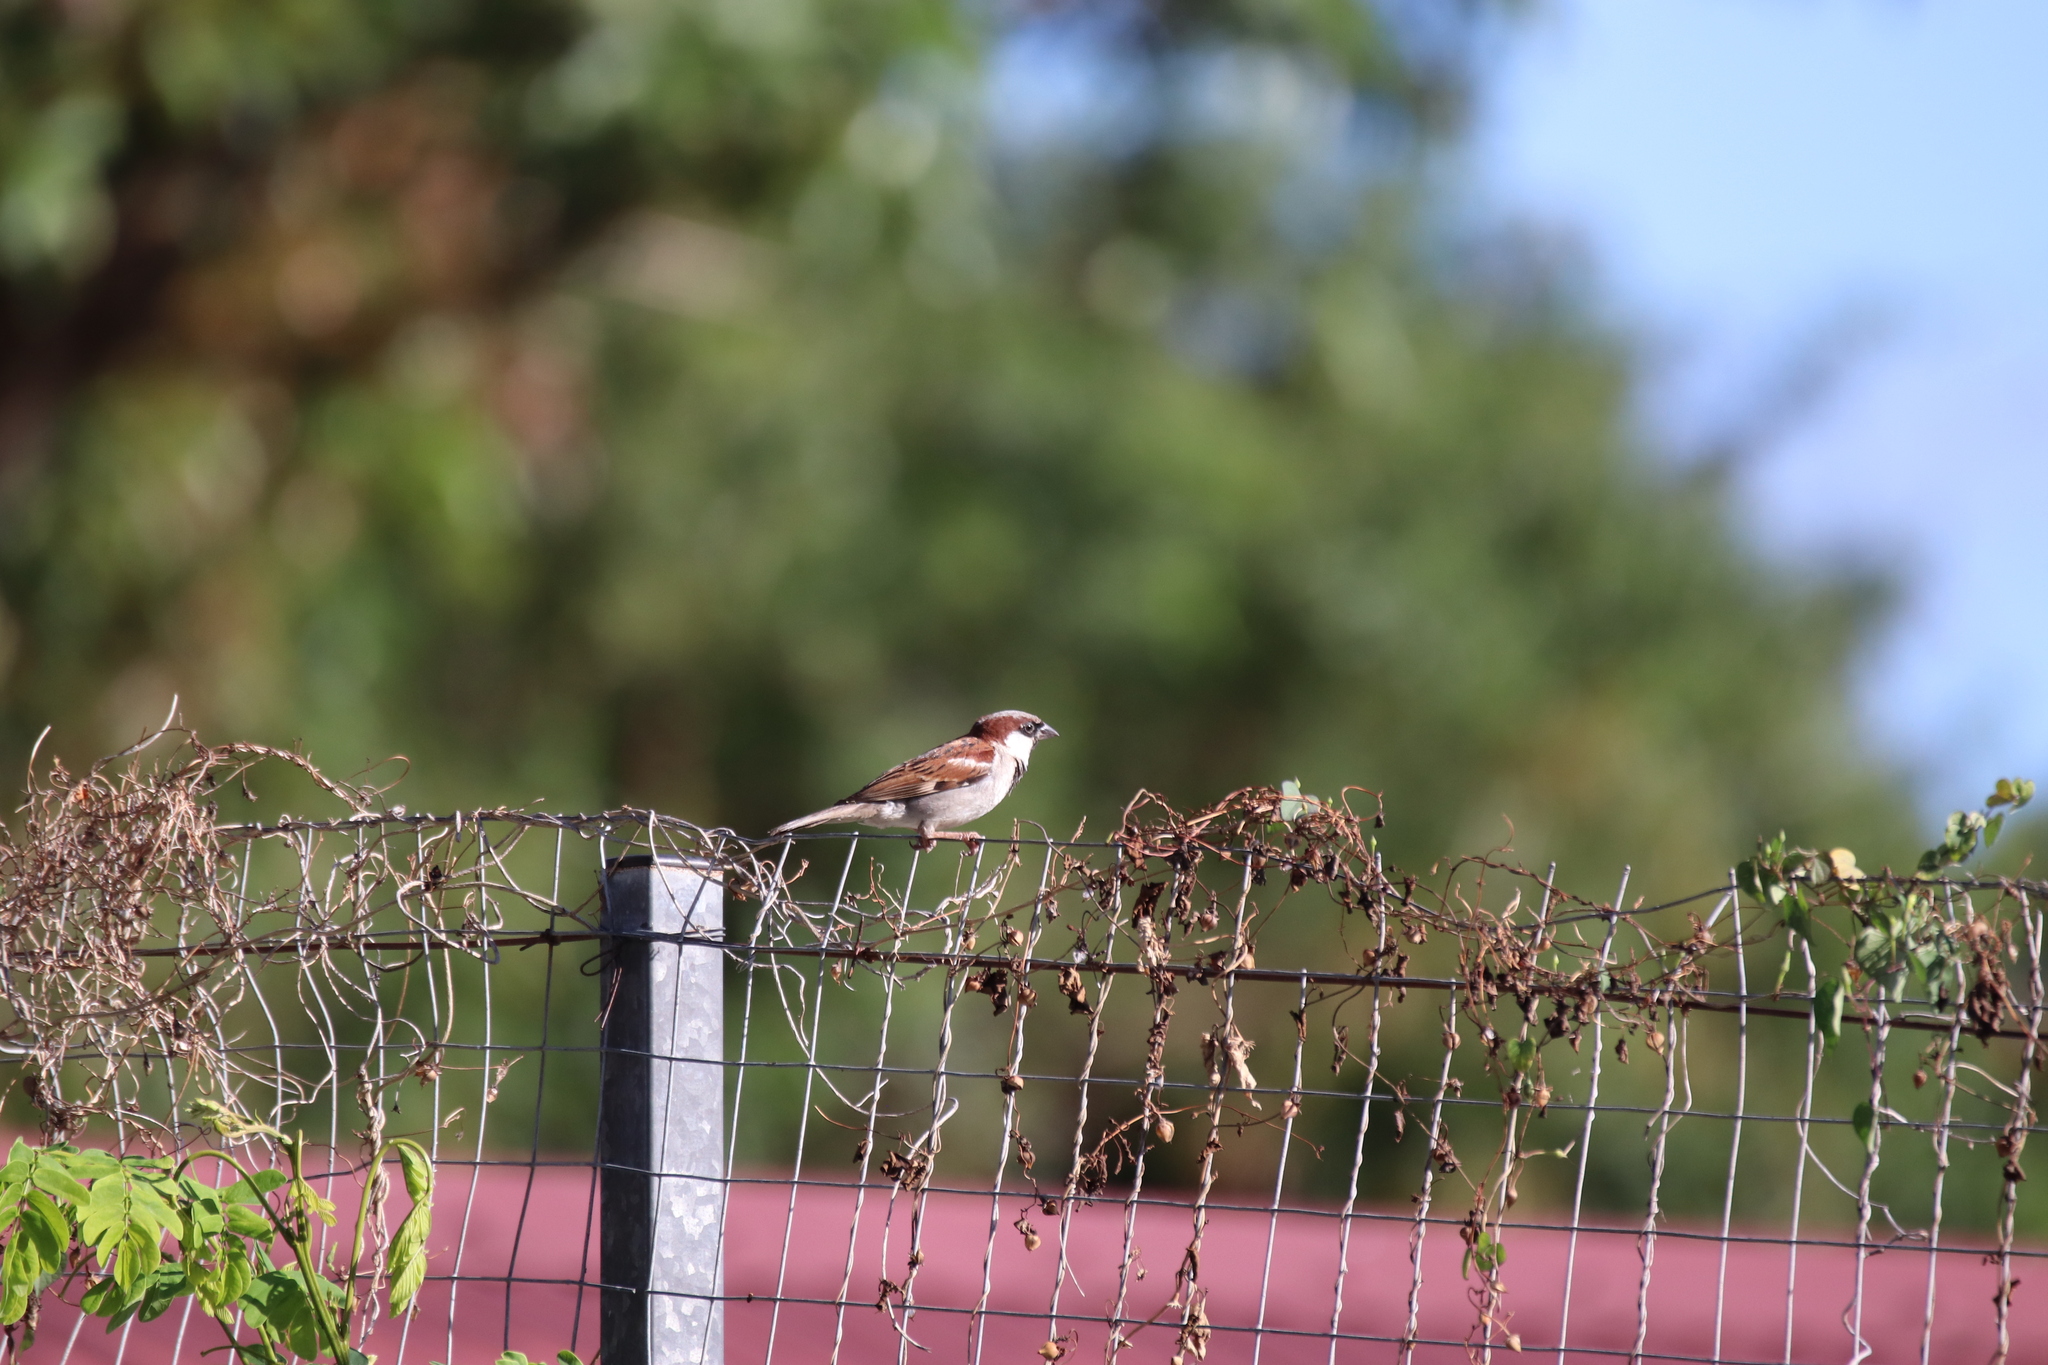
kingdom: Animalia
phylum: Chordata
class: Aves
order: Passeriformes
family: Passeridae
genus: Passer
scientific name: Passer domesticus
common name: House sparrow
